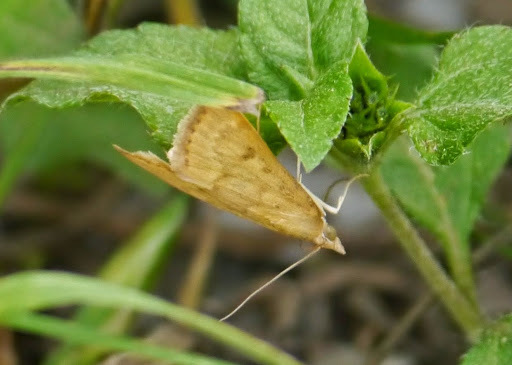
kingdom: Animalia
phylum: Arthropoda
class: Insecta
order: Lepidoptera
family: Crambidae
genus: Achyra
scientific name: Achyra rantalis
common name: Garden webworm
